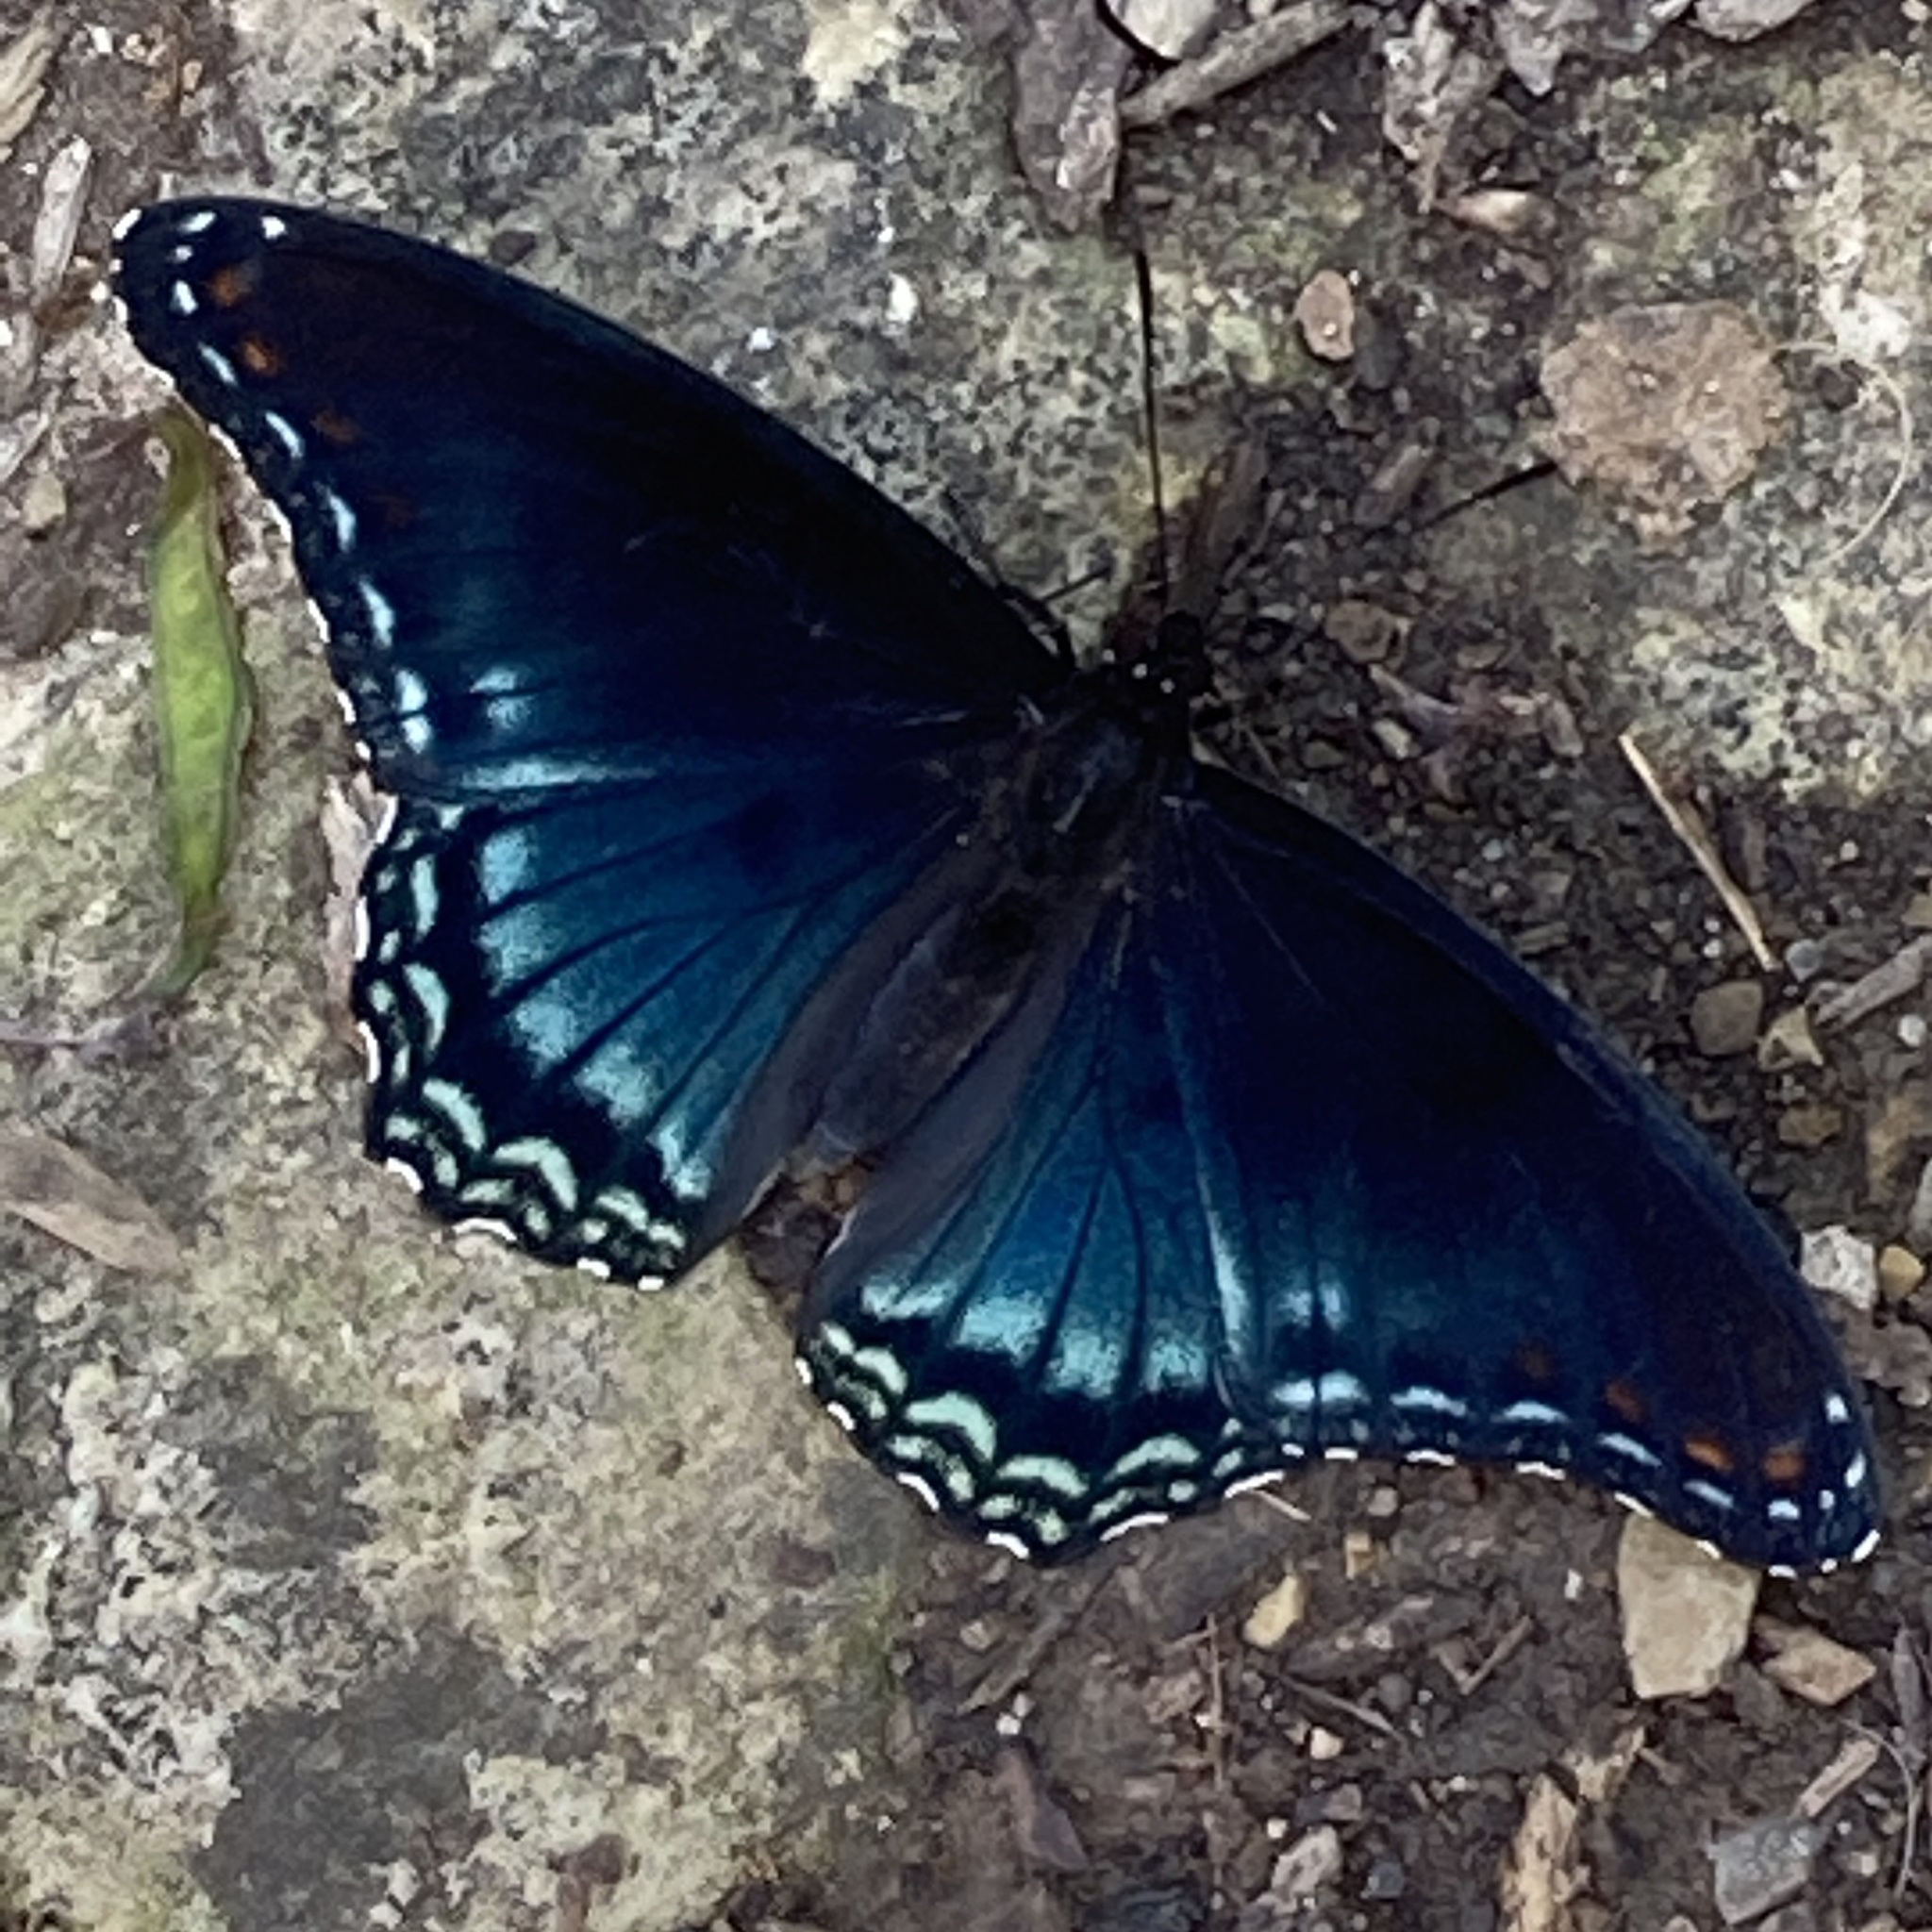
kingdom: Animalia
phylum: Arthropoda
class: Insecta
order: Lepidoptera
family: Nymphalidae
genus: Limenitis
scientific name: Limenitis astyanax
